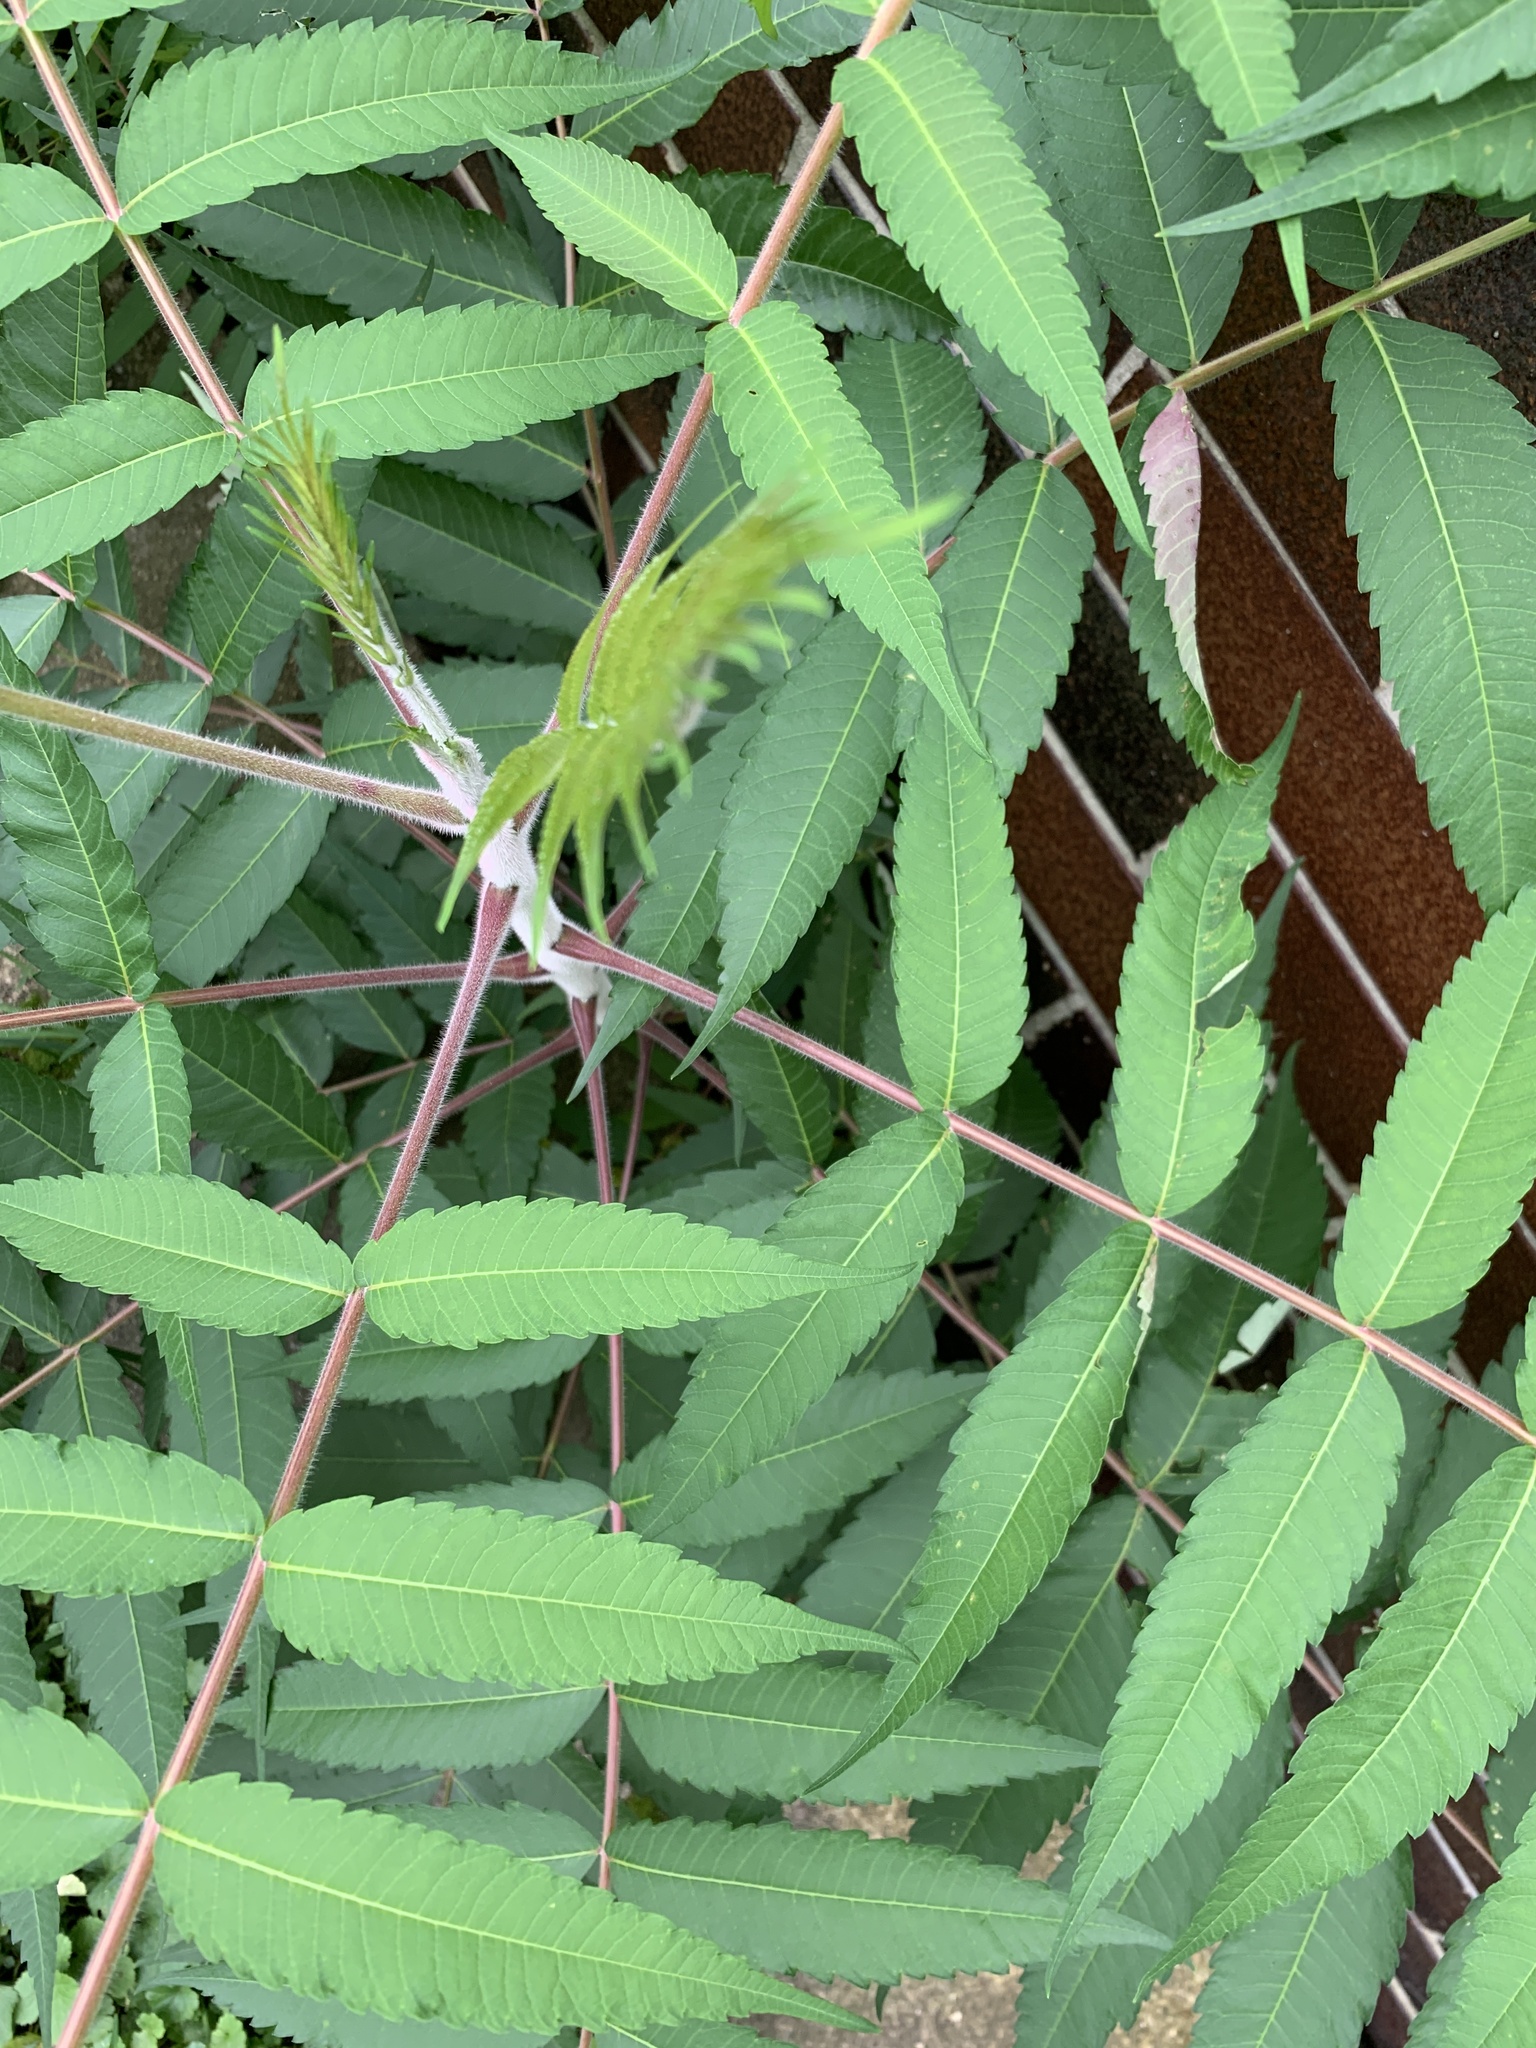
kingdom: Plantae
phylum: Tracheophyta
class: Magnoliopsida
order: Sapindales
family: Anacardiaceae
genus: Rhus
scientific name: Rhus typhina
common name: Staghorn sumac
